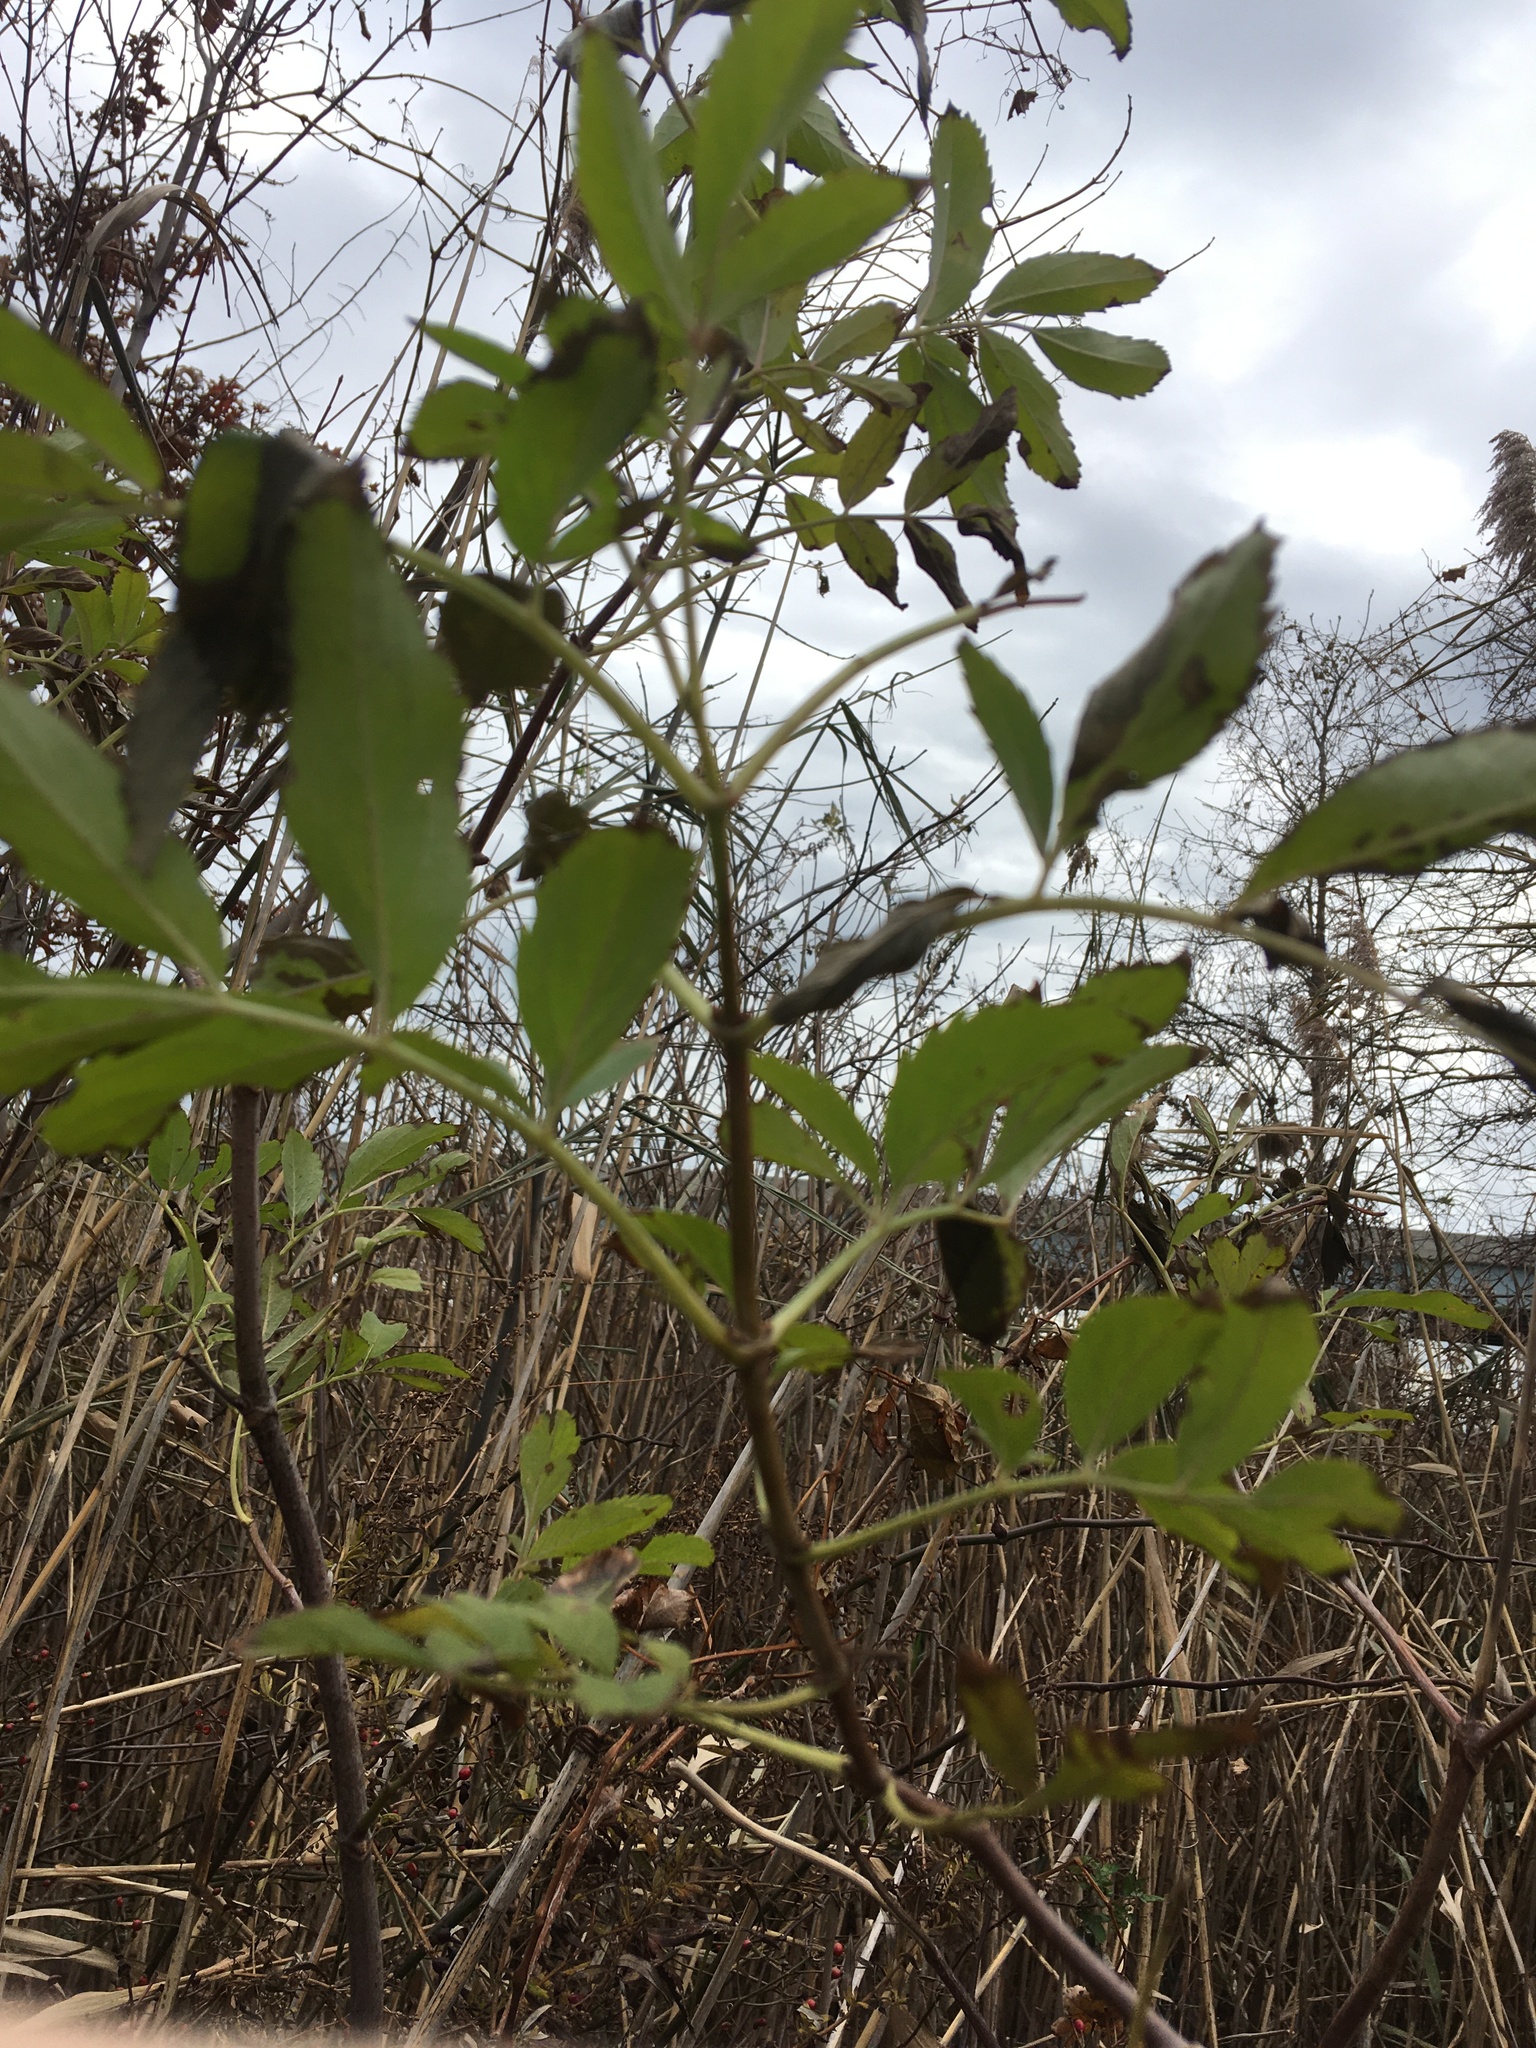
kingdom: Plantae
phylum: Tracheophyta
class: Magnoliopsida
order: Dipsacales
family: Viburnaceae
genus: Sambucus
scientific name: Sambucus canadensis
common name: American elder
